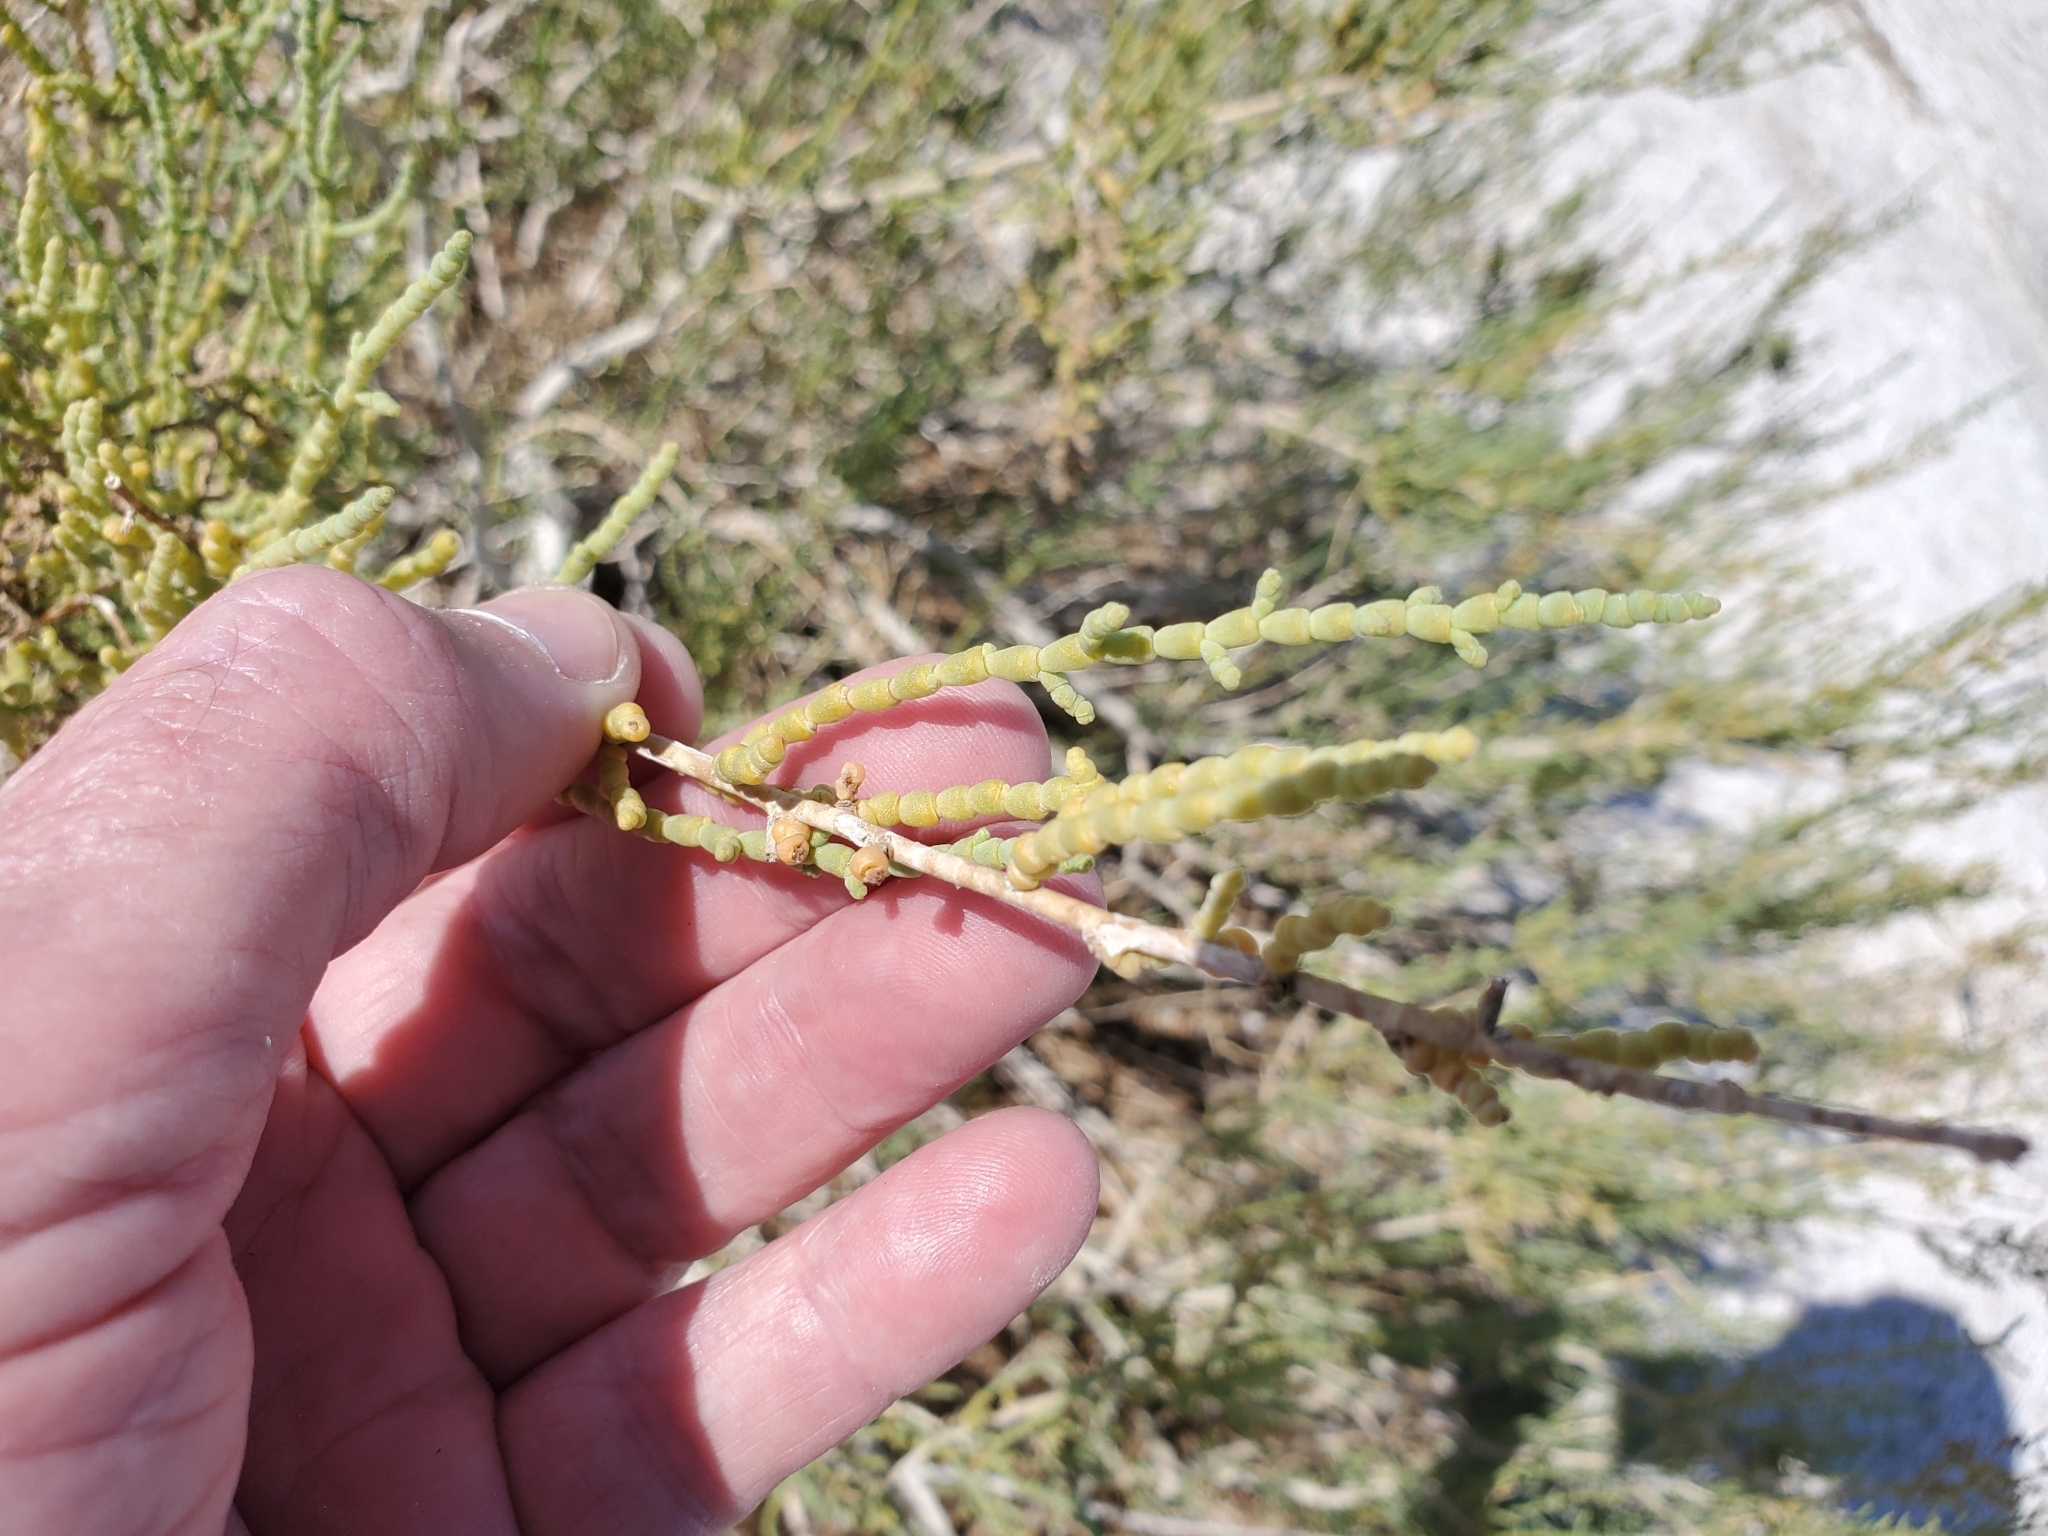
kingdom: Plantae
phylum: Tracheophyta
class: Magnoliopsida
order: Caryophyllales
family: Amaranthaceae
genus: Allenrolfea
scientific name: Allenrolfea occidentalis
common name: Iodine-bush
